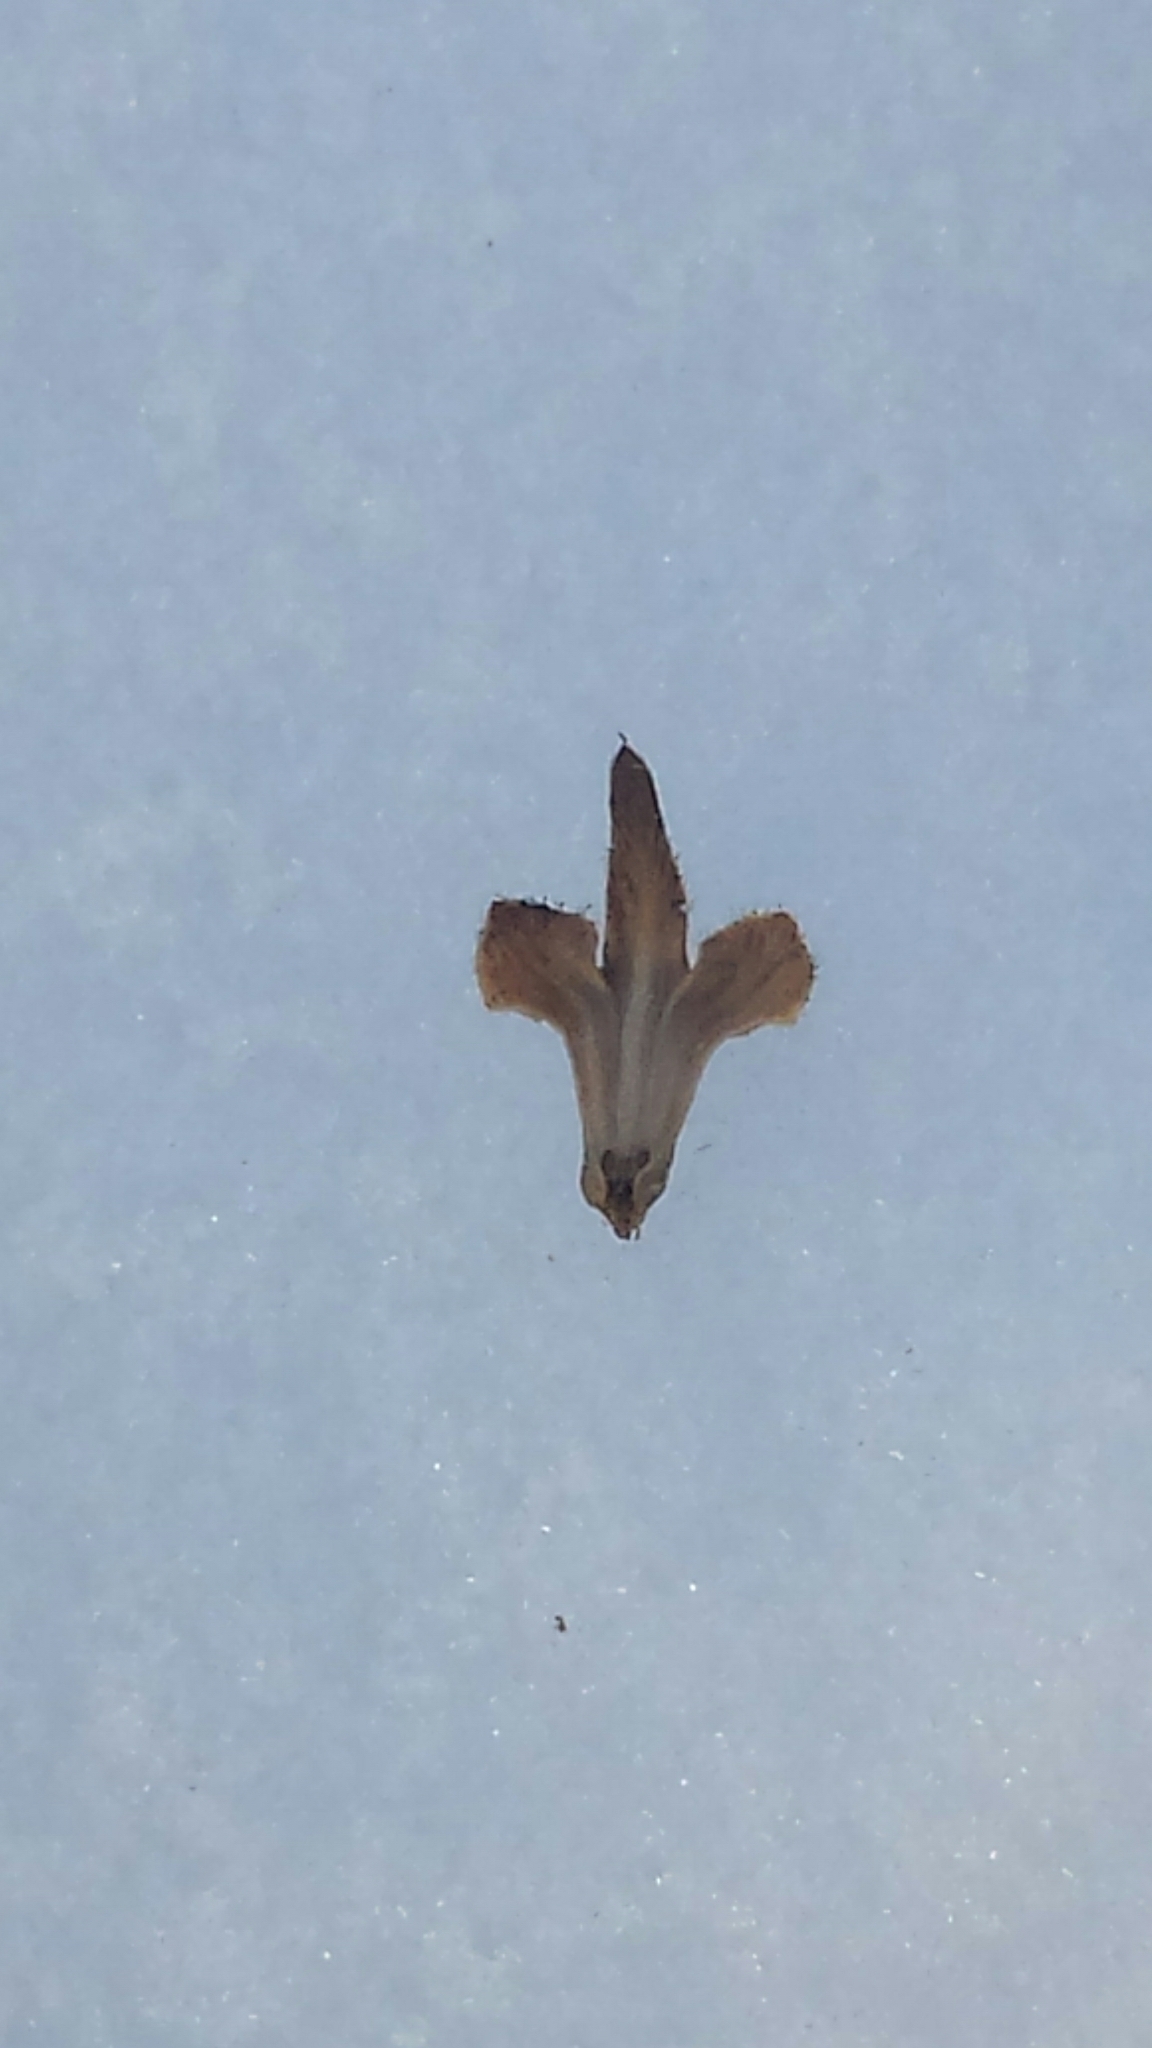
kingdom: Plantae
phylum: Tracheophyta
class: Magnoliopsida
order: Fagales
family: Betulaceae
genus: Betula
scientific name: Betula papyrifera
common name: Paper birch
